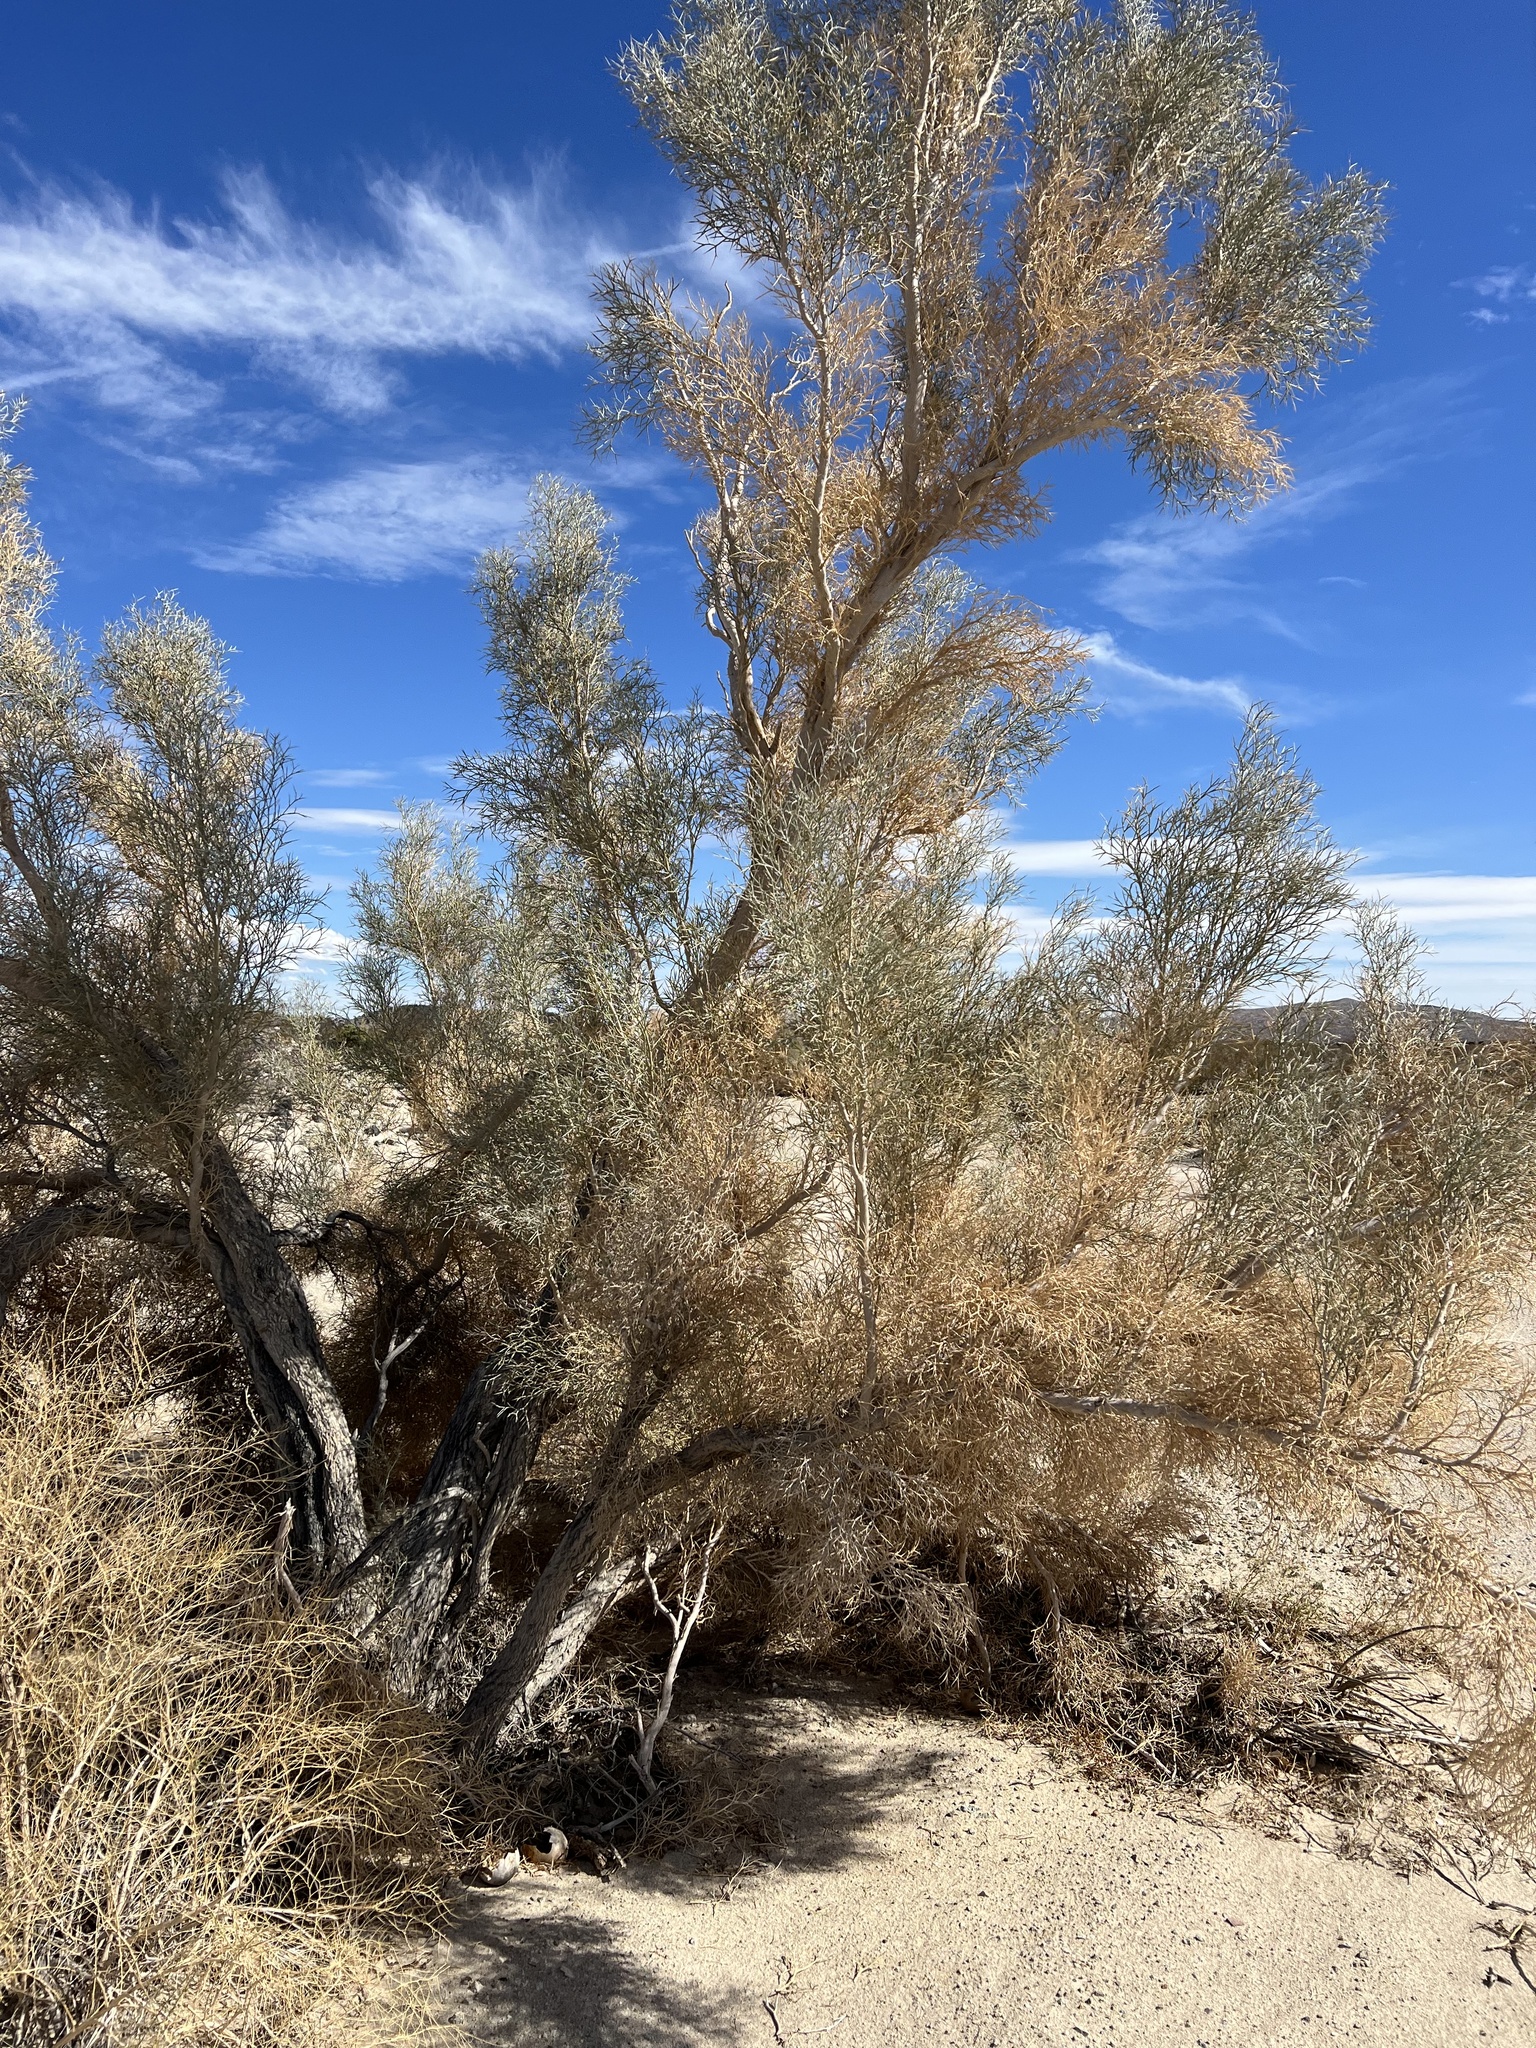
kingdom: Plantae
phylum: Tracheophyta
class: Magnoliopsida
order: Fabales
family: Fabaceae
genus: Psorothamnus
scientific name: Psorothamnus spinosus
